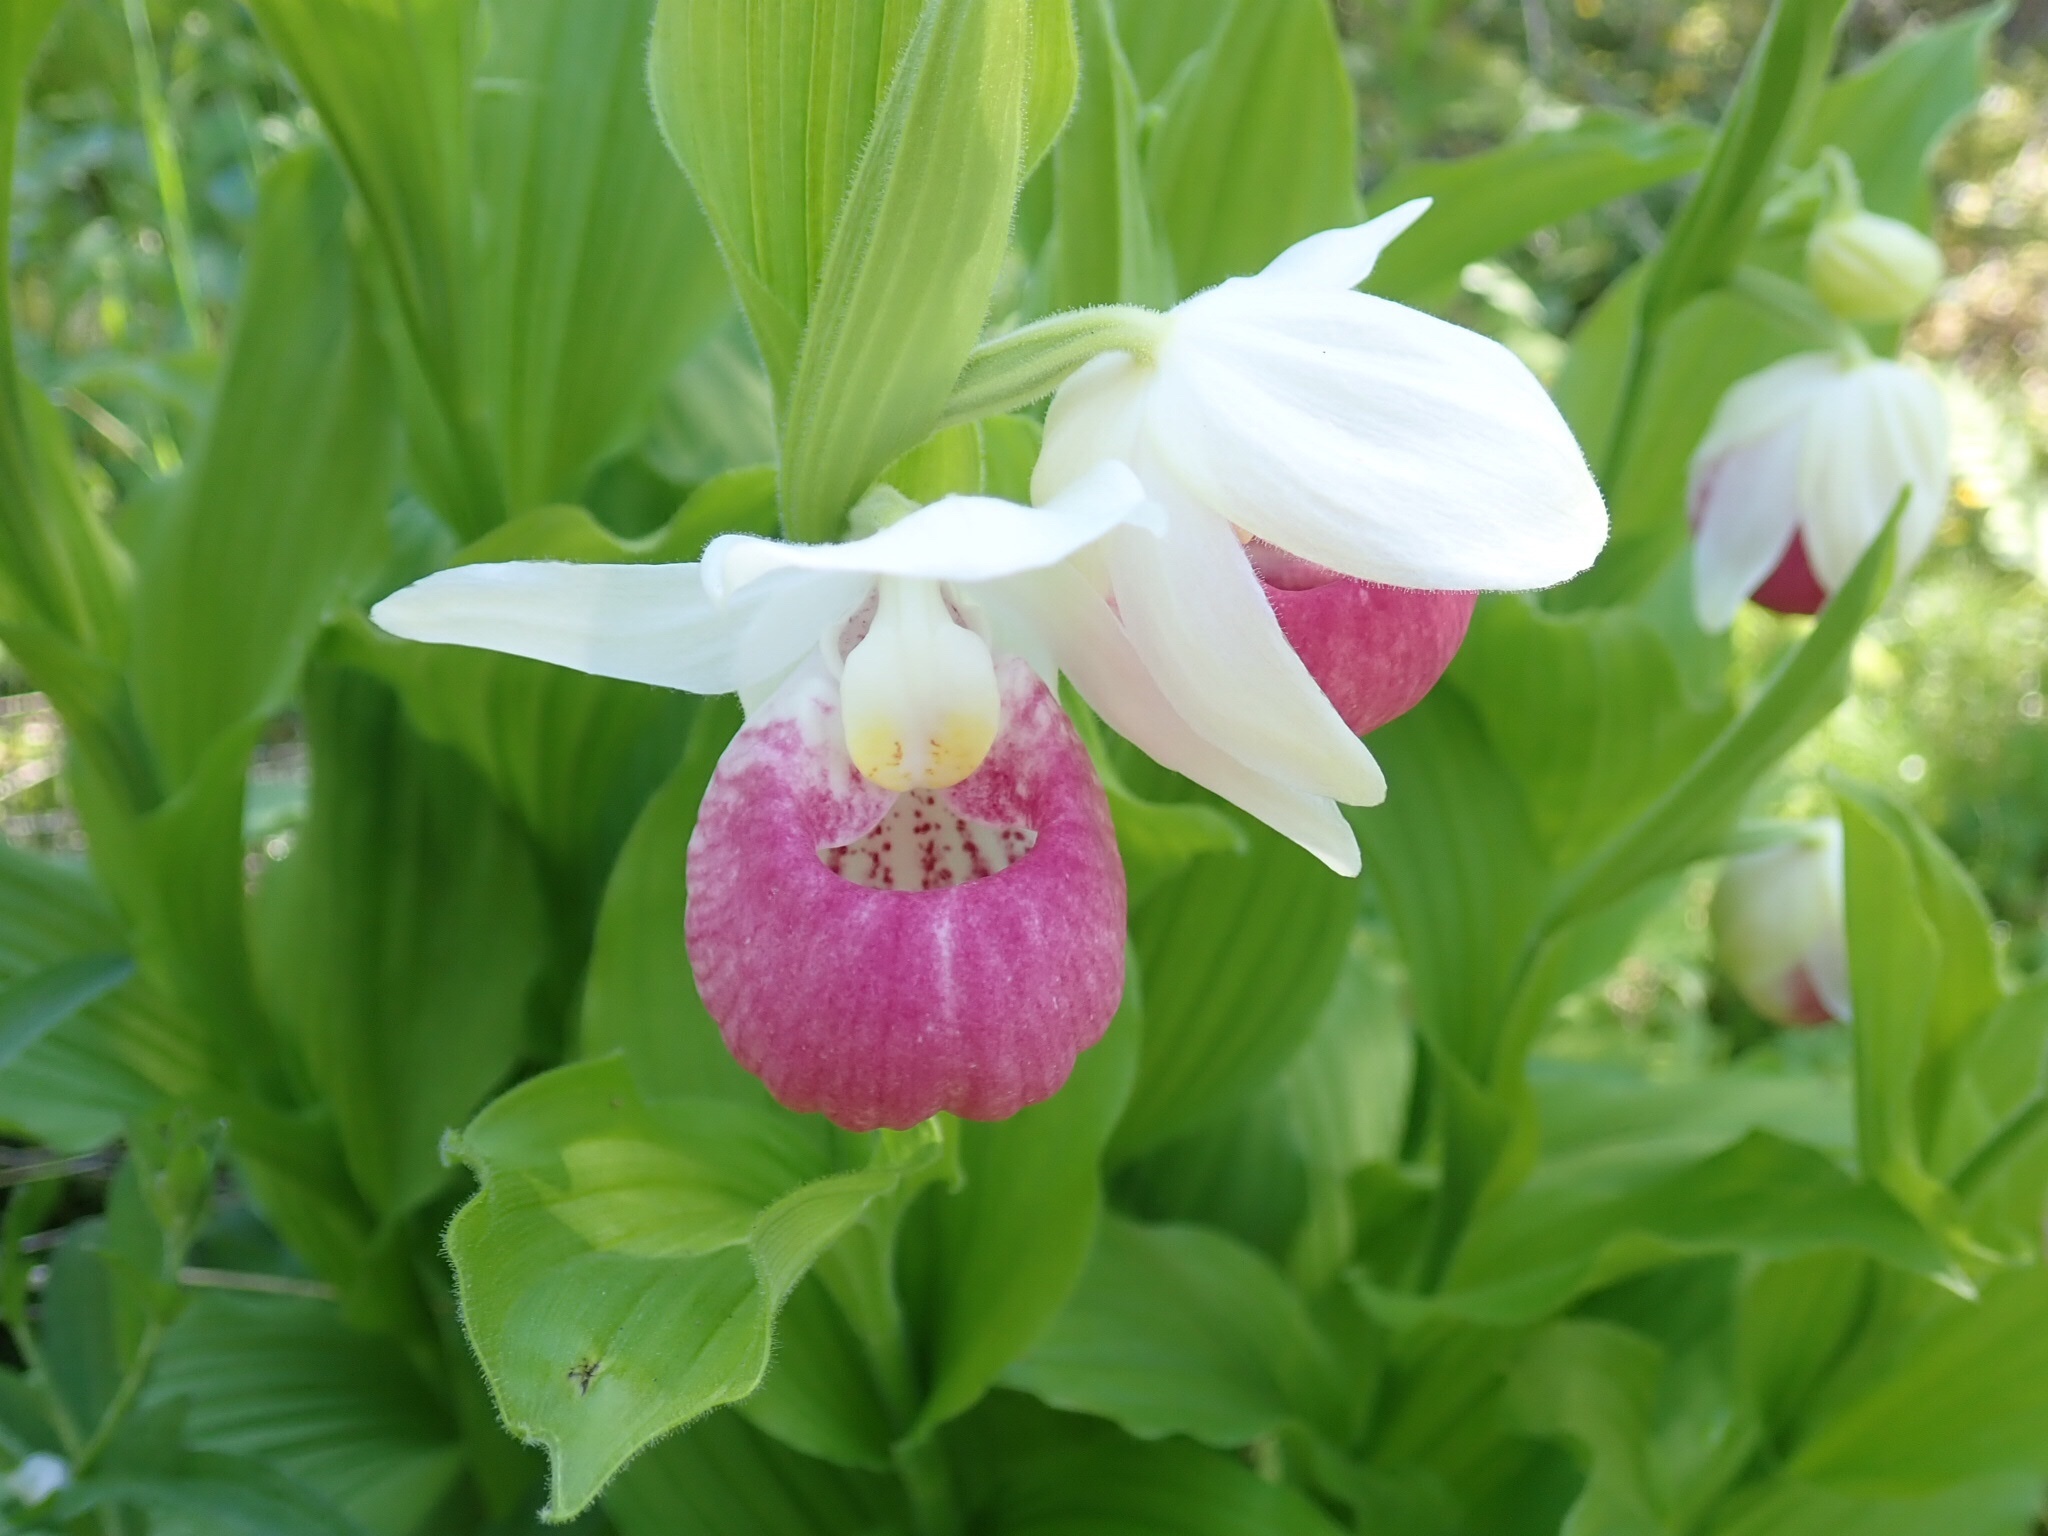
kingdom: Plantae
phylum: Tracheophyta
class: Liliopsida
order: Asparagales
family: Orchidaceae
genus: Cypripedium
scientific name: Cypripedium reginae
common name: Queen lady's-slipper
